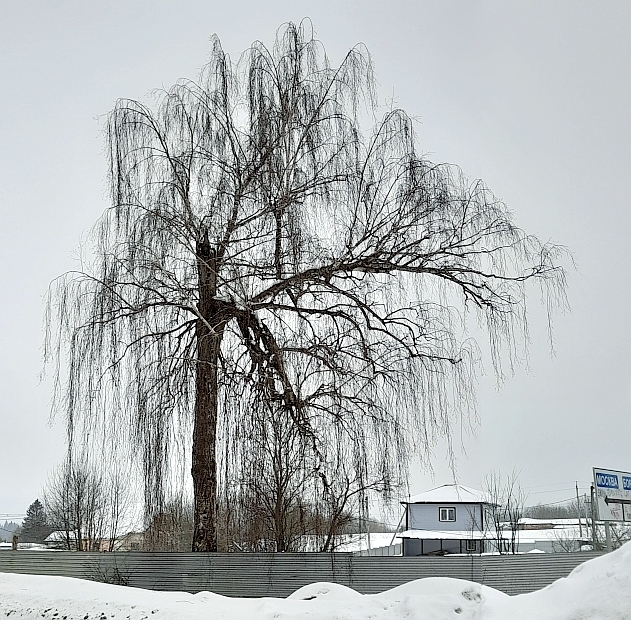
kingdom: Plantae
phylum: Tracheophyta
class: Magnoliopsida
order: Fagales
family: Betulaceae
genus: Betula
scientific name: Betula pendula
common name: Silver birch
